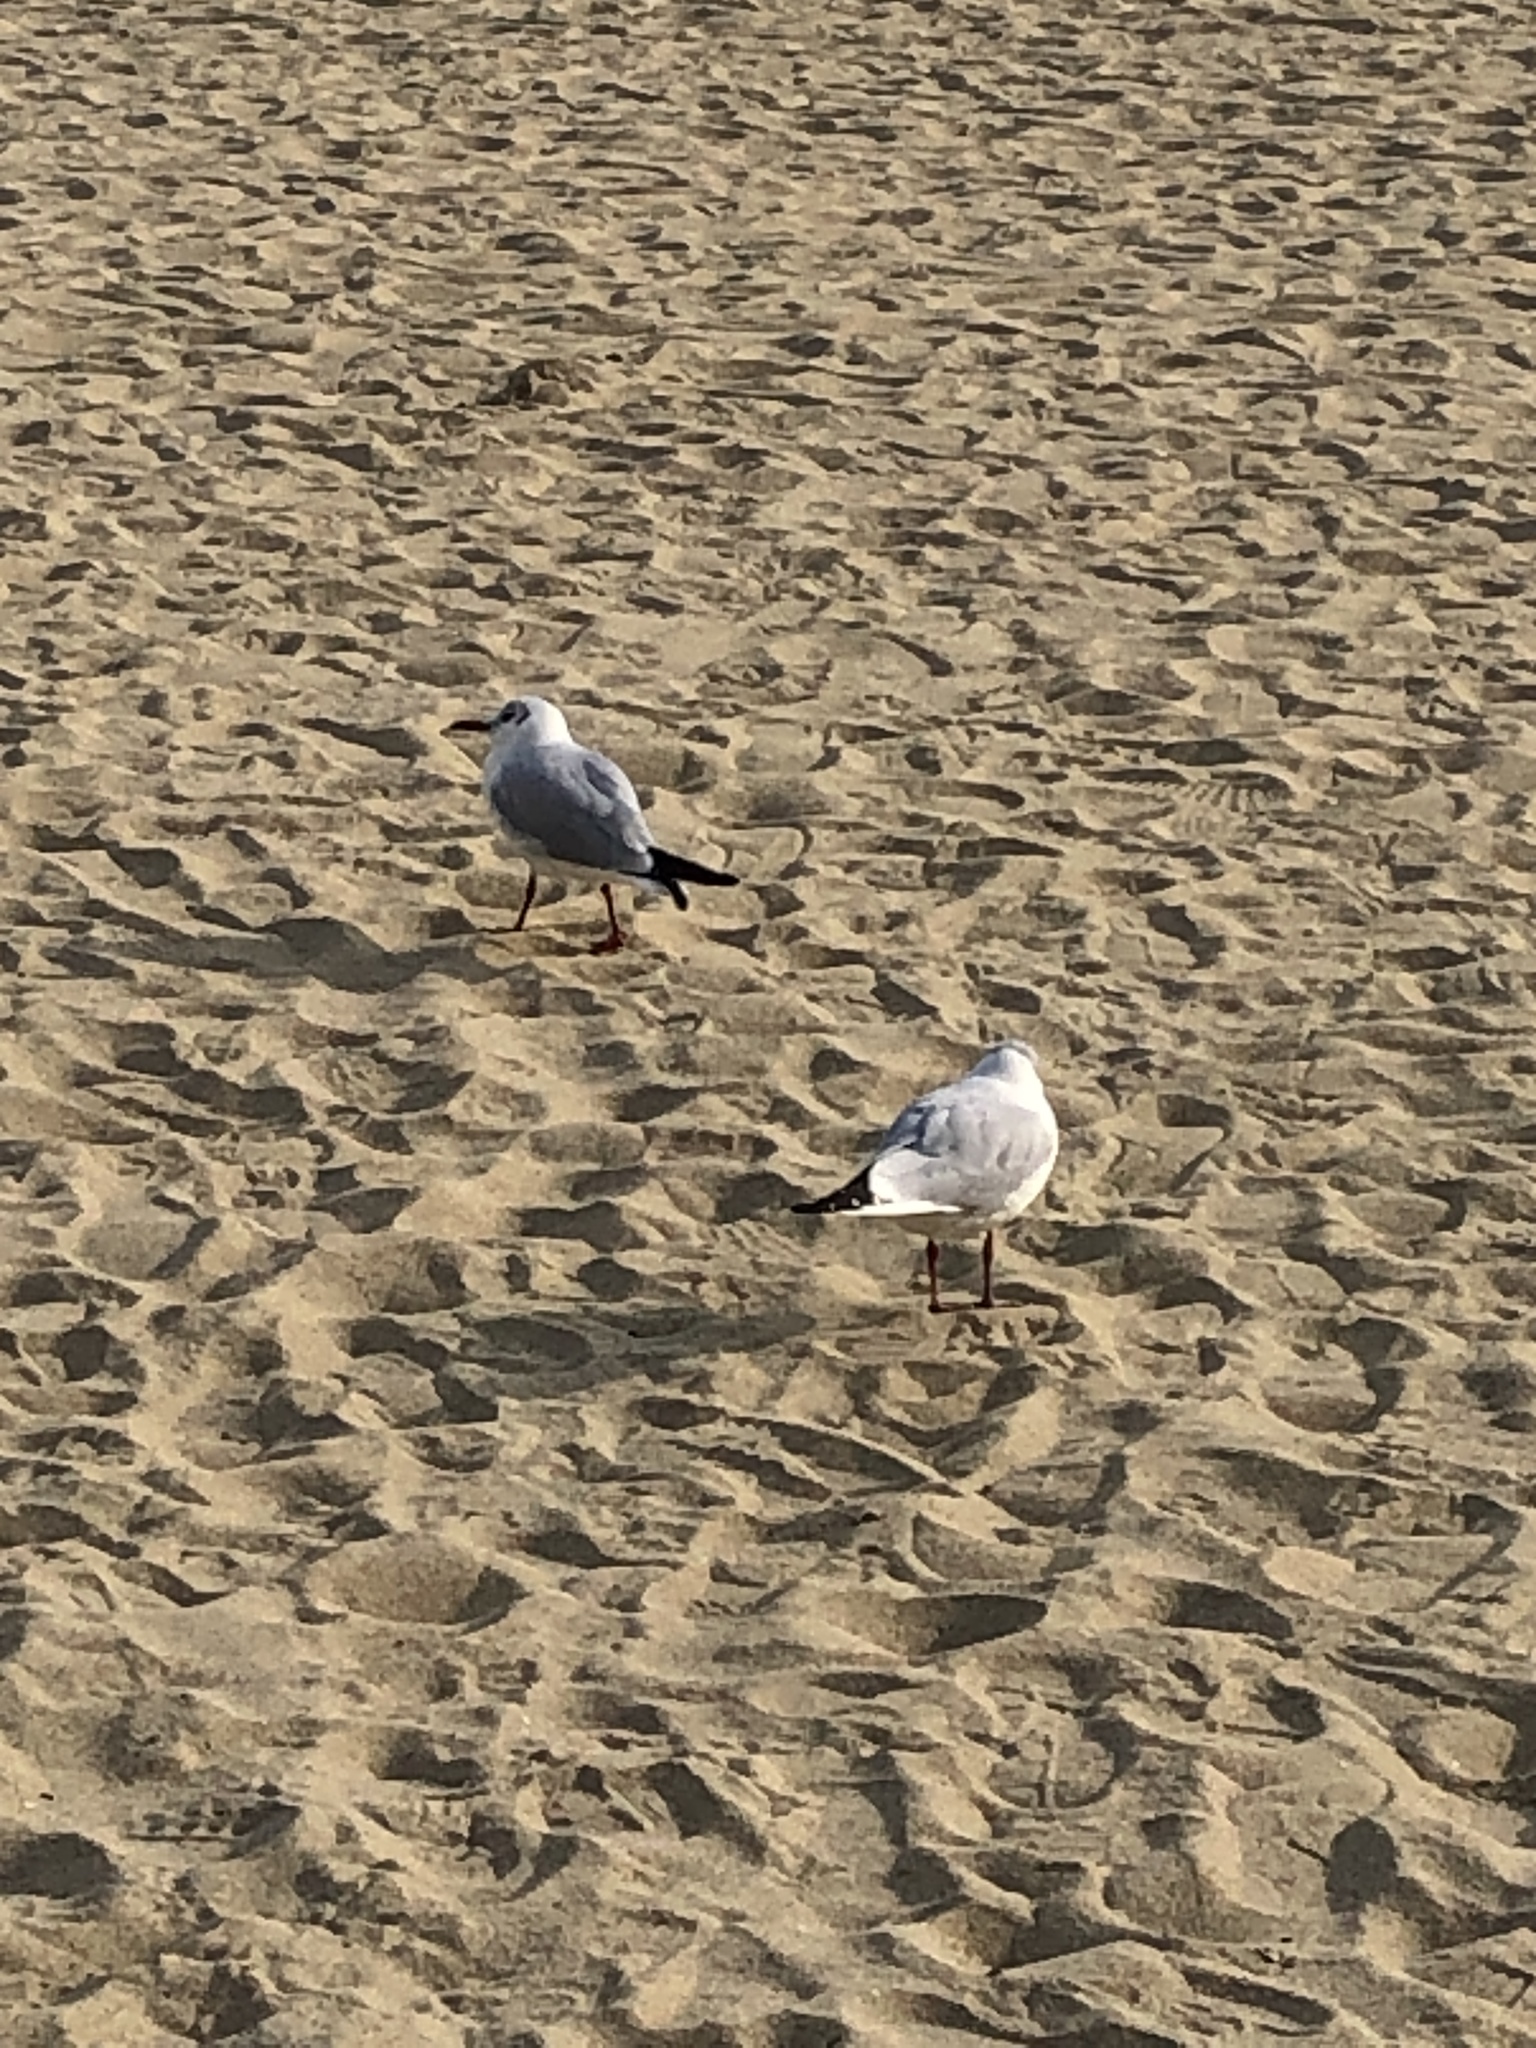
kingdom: Animalia
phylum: Chordata
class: Aves
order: Charadriiformes
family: Laridae
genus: Chroicocephalus
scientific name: Chroicocephalus ridibundus
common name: Black-headed gull
